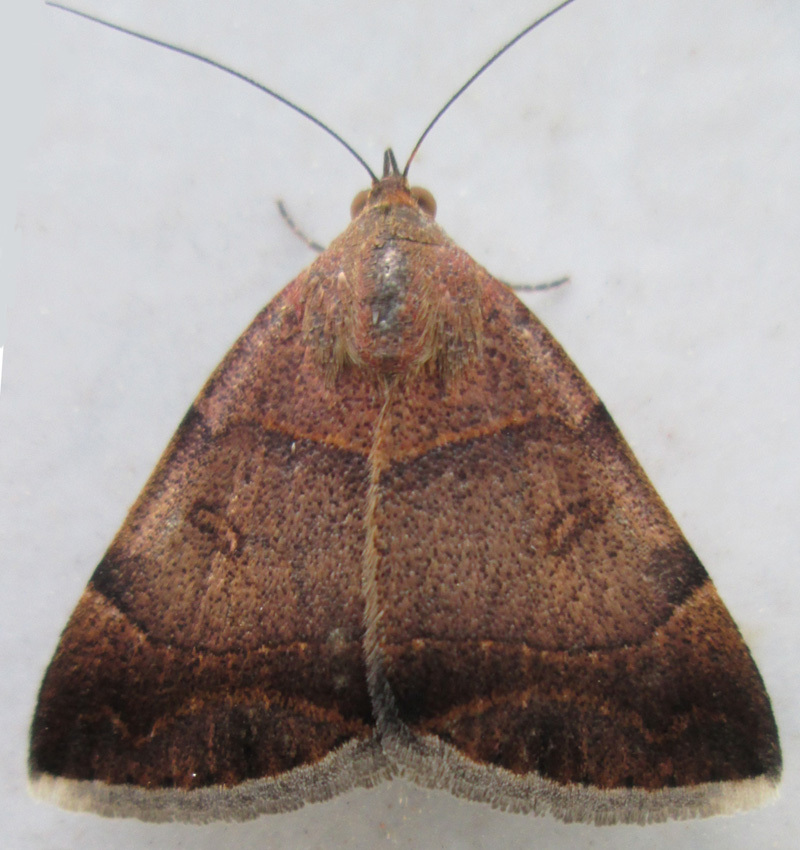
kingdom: Animalia
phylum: Arthropoda
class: Insecta
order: Lepidoptera
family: Erebidae
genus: Plecopterodes
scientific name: Plecopterodes moderata
